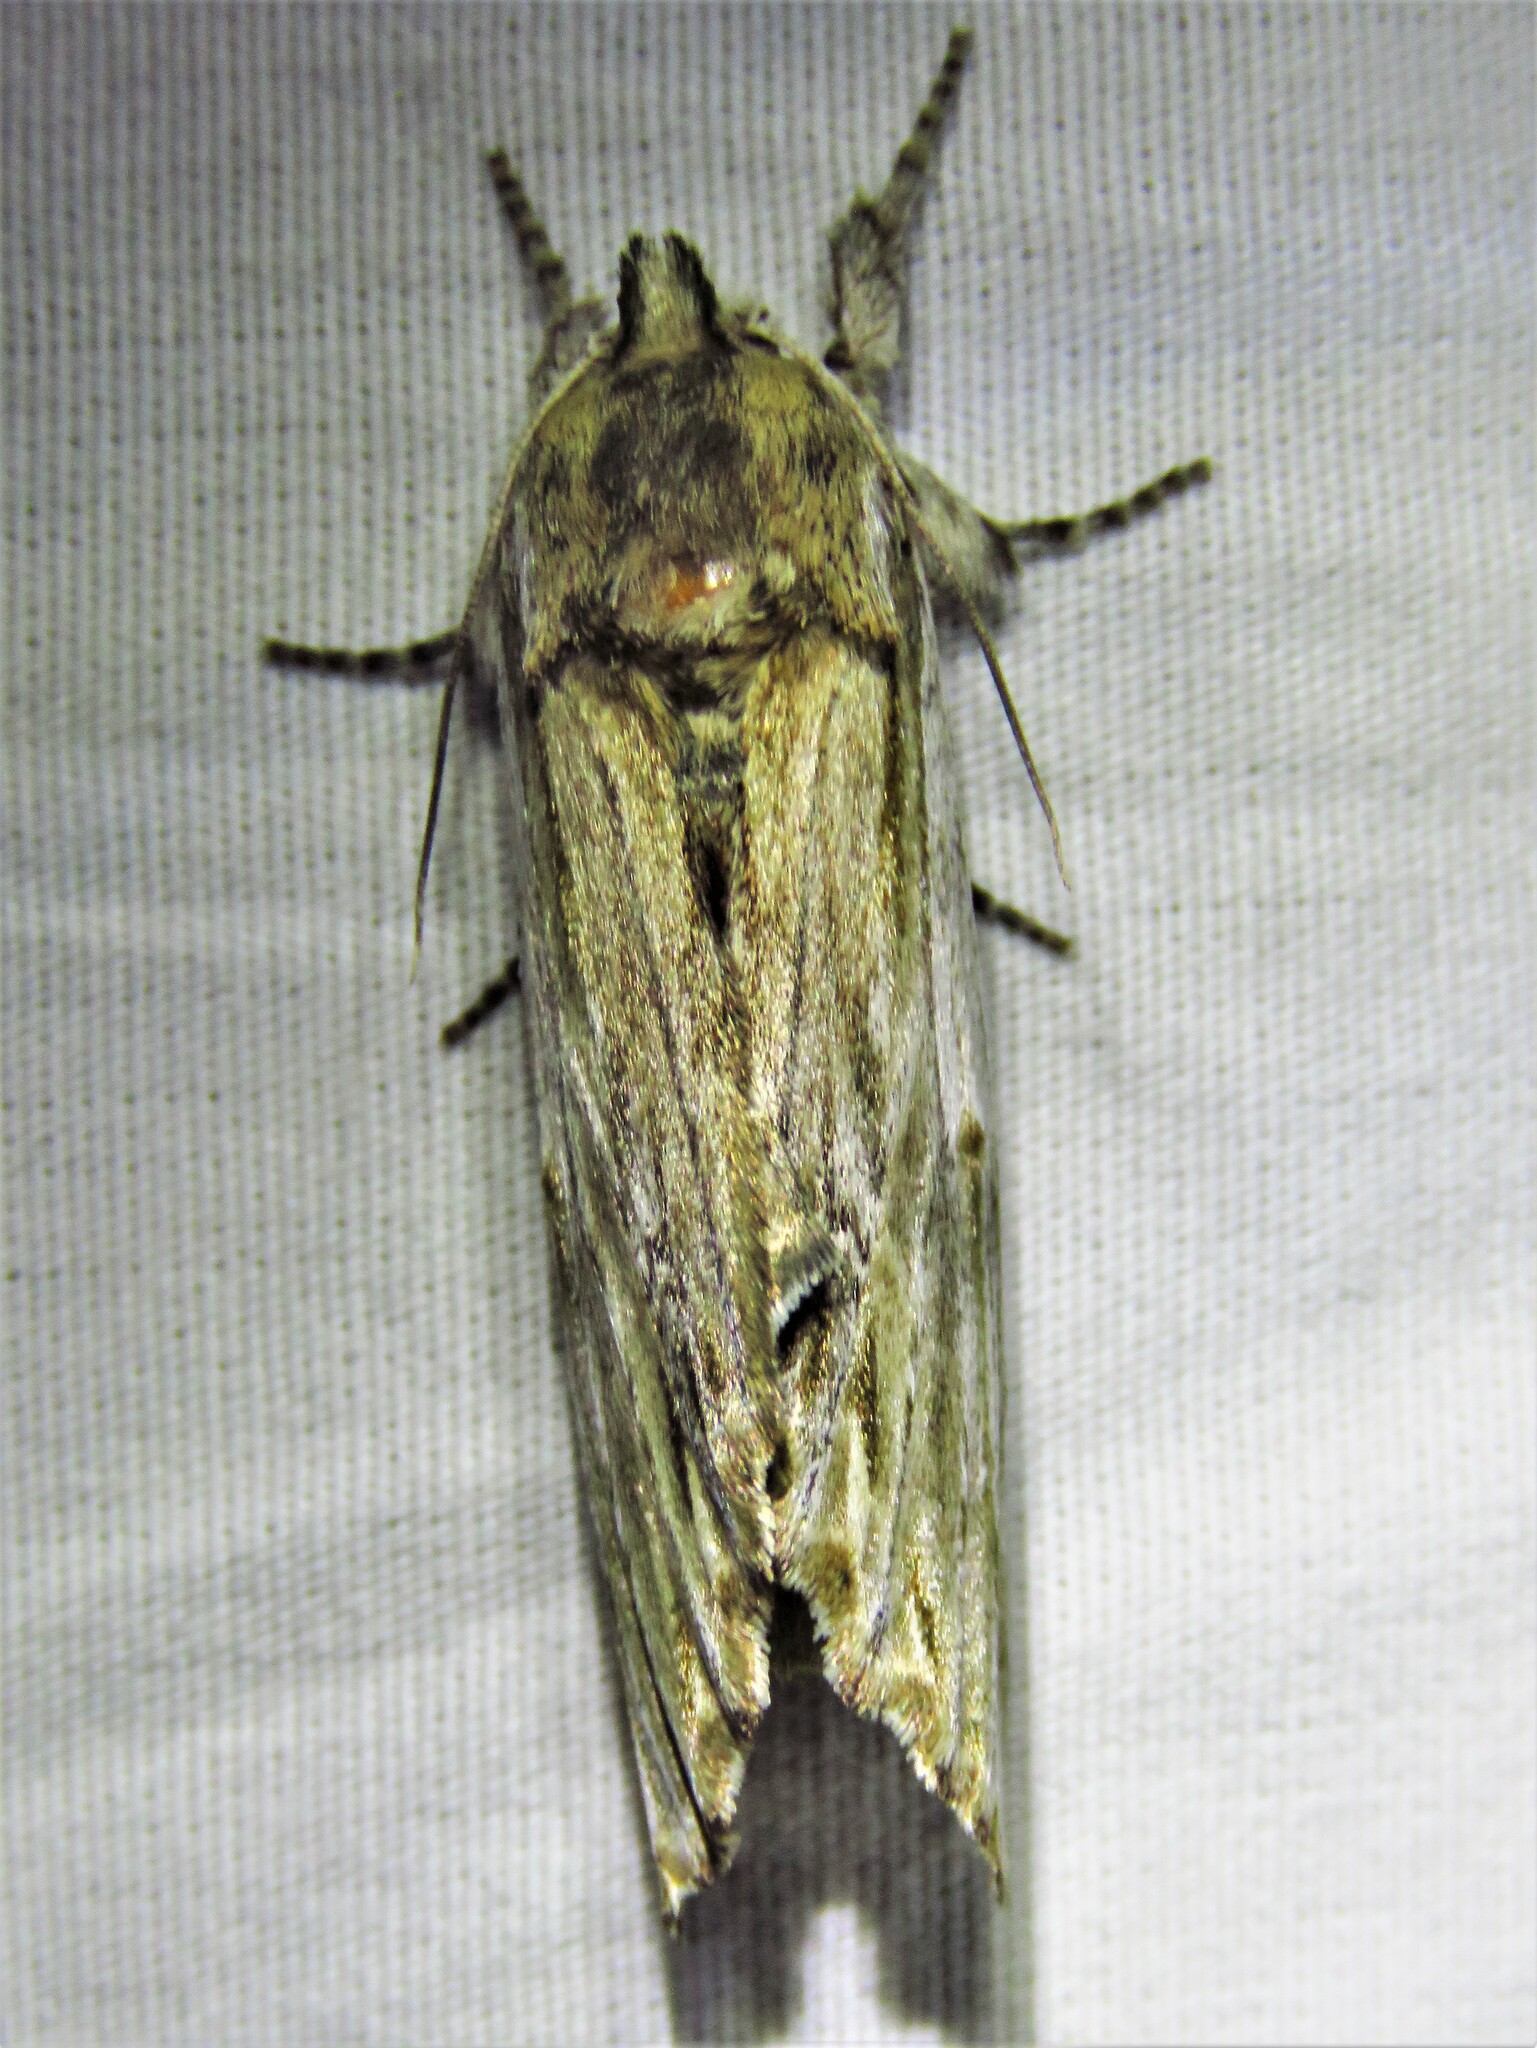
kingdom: Animalia
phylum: Arthropoda
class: Insecta
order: Lepidoptera
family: Notodontidae
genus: Oligocentria
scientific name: Oligocentria Ianassa lignicolor
